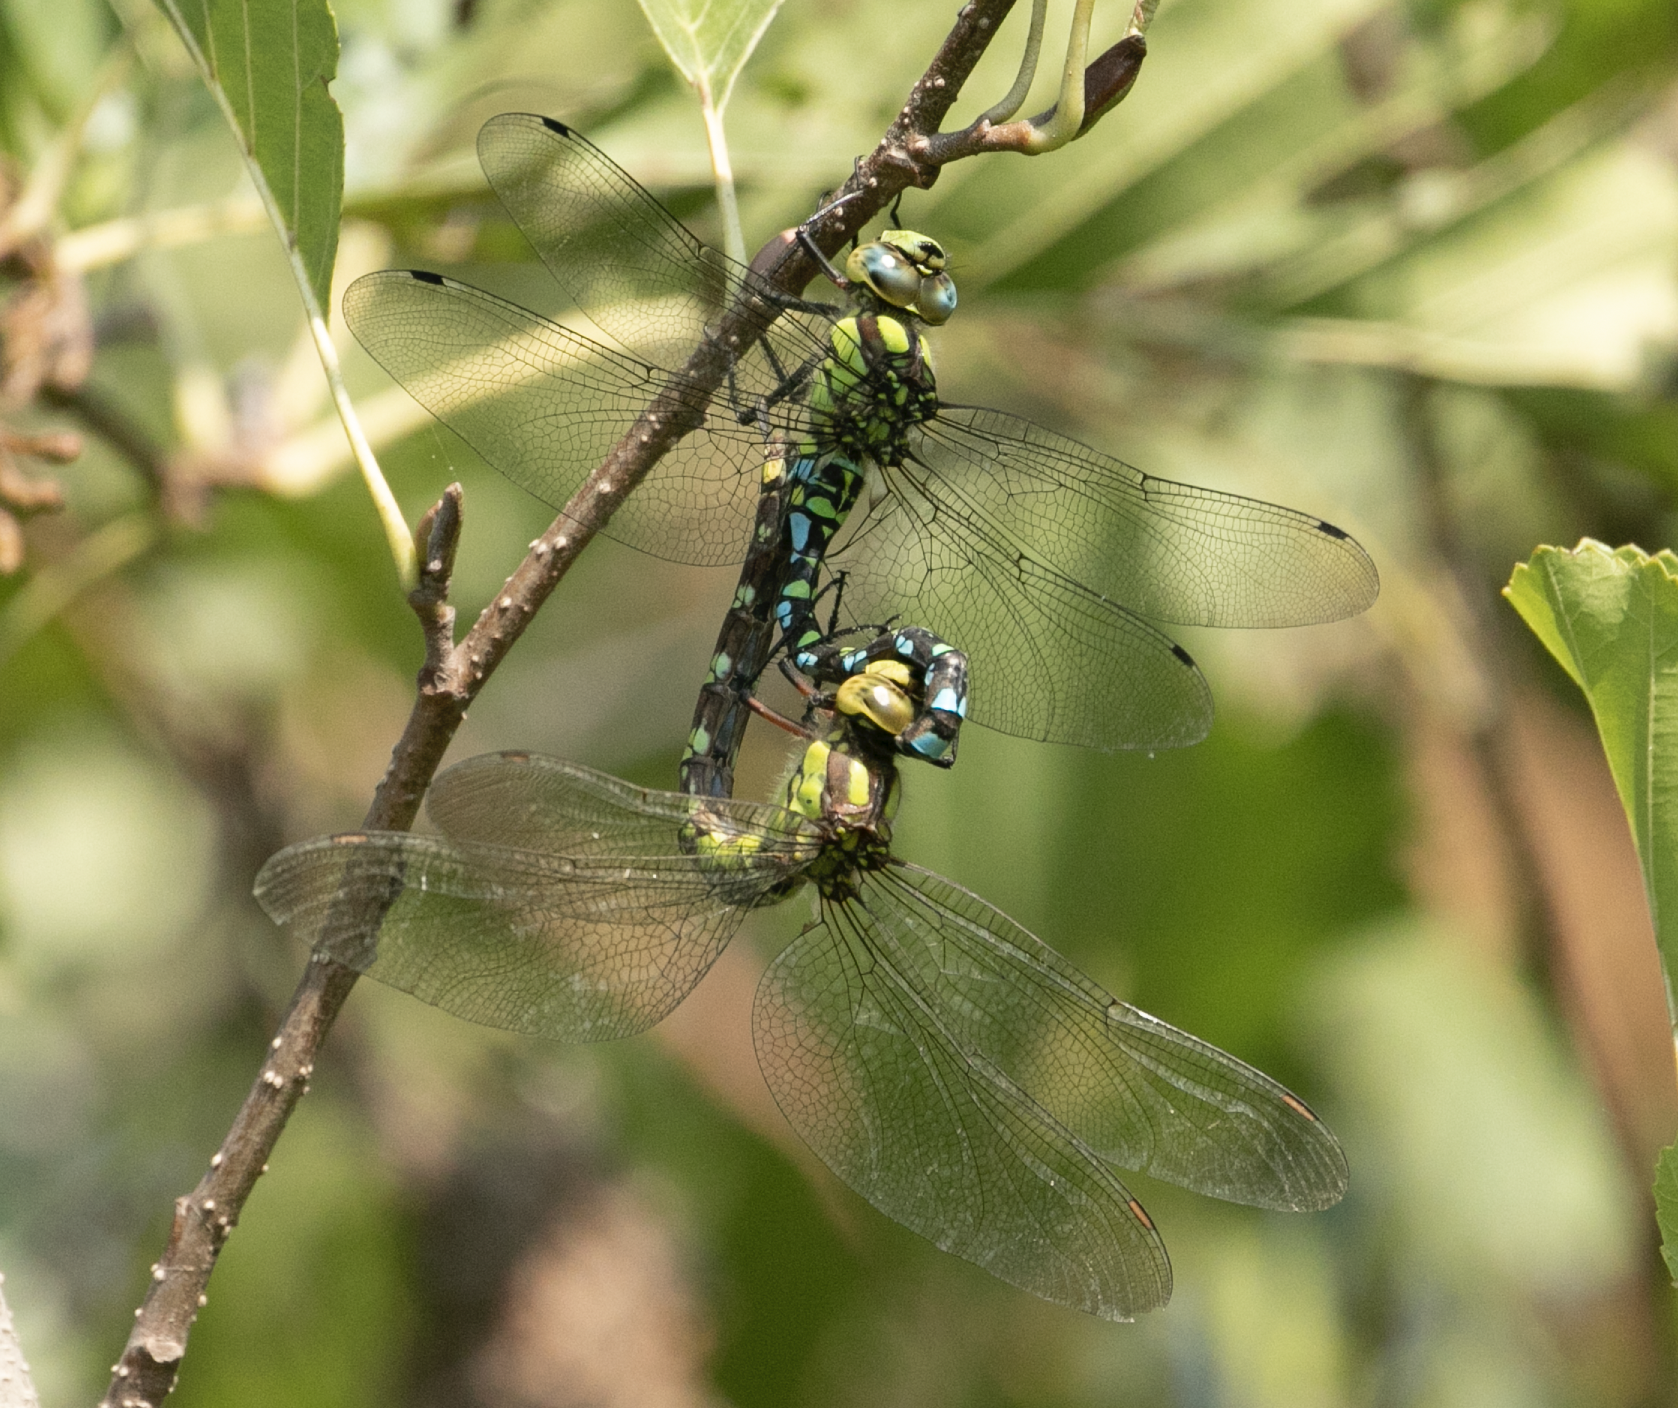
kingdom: Animalia
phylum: Arthropoda
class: Insecta
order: Odonata
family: Aeshnidae
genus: Aeshna
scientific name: Aeshna cyanea
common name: Southern hawker
